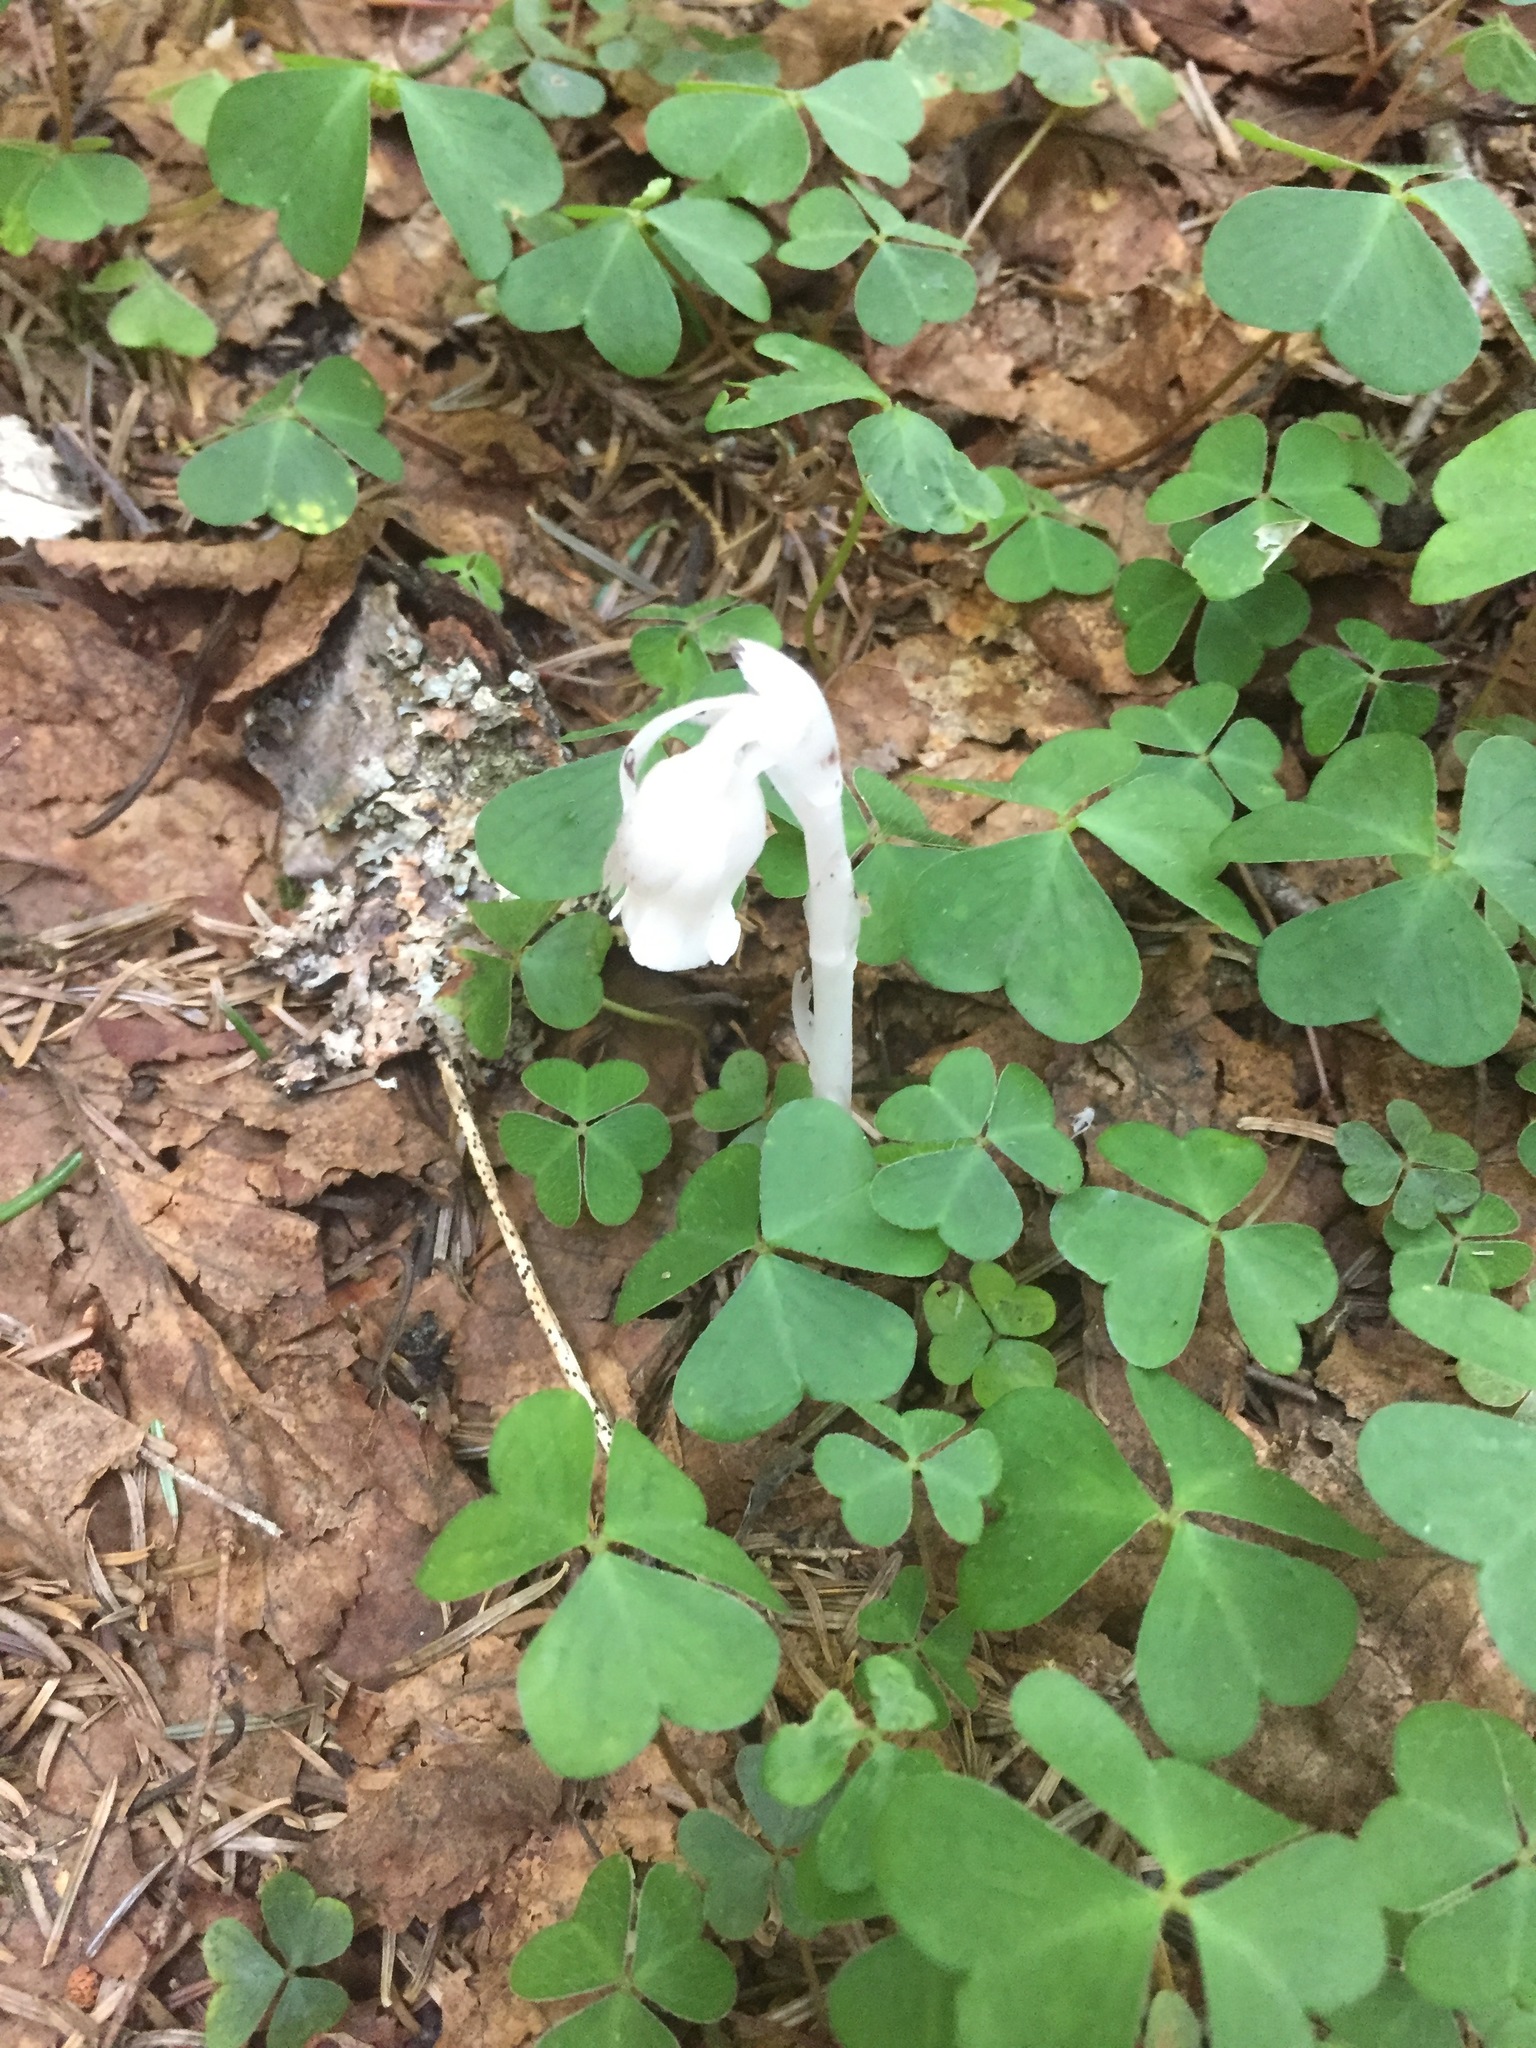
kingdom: Plantae
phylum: Tracheophyta
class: Magnoliopsida
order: Ericales
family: Ericaceae
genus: Monotropa
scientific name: Monotropa uniflora
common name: Convulsion root
